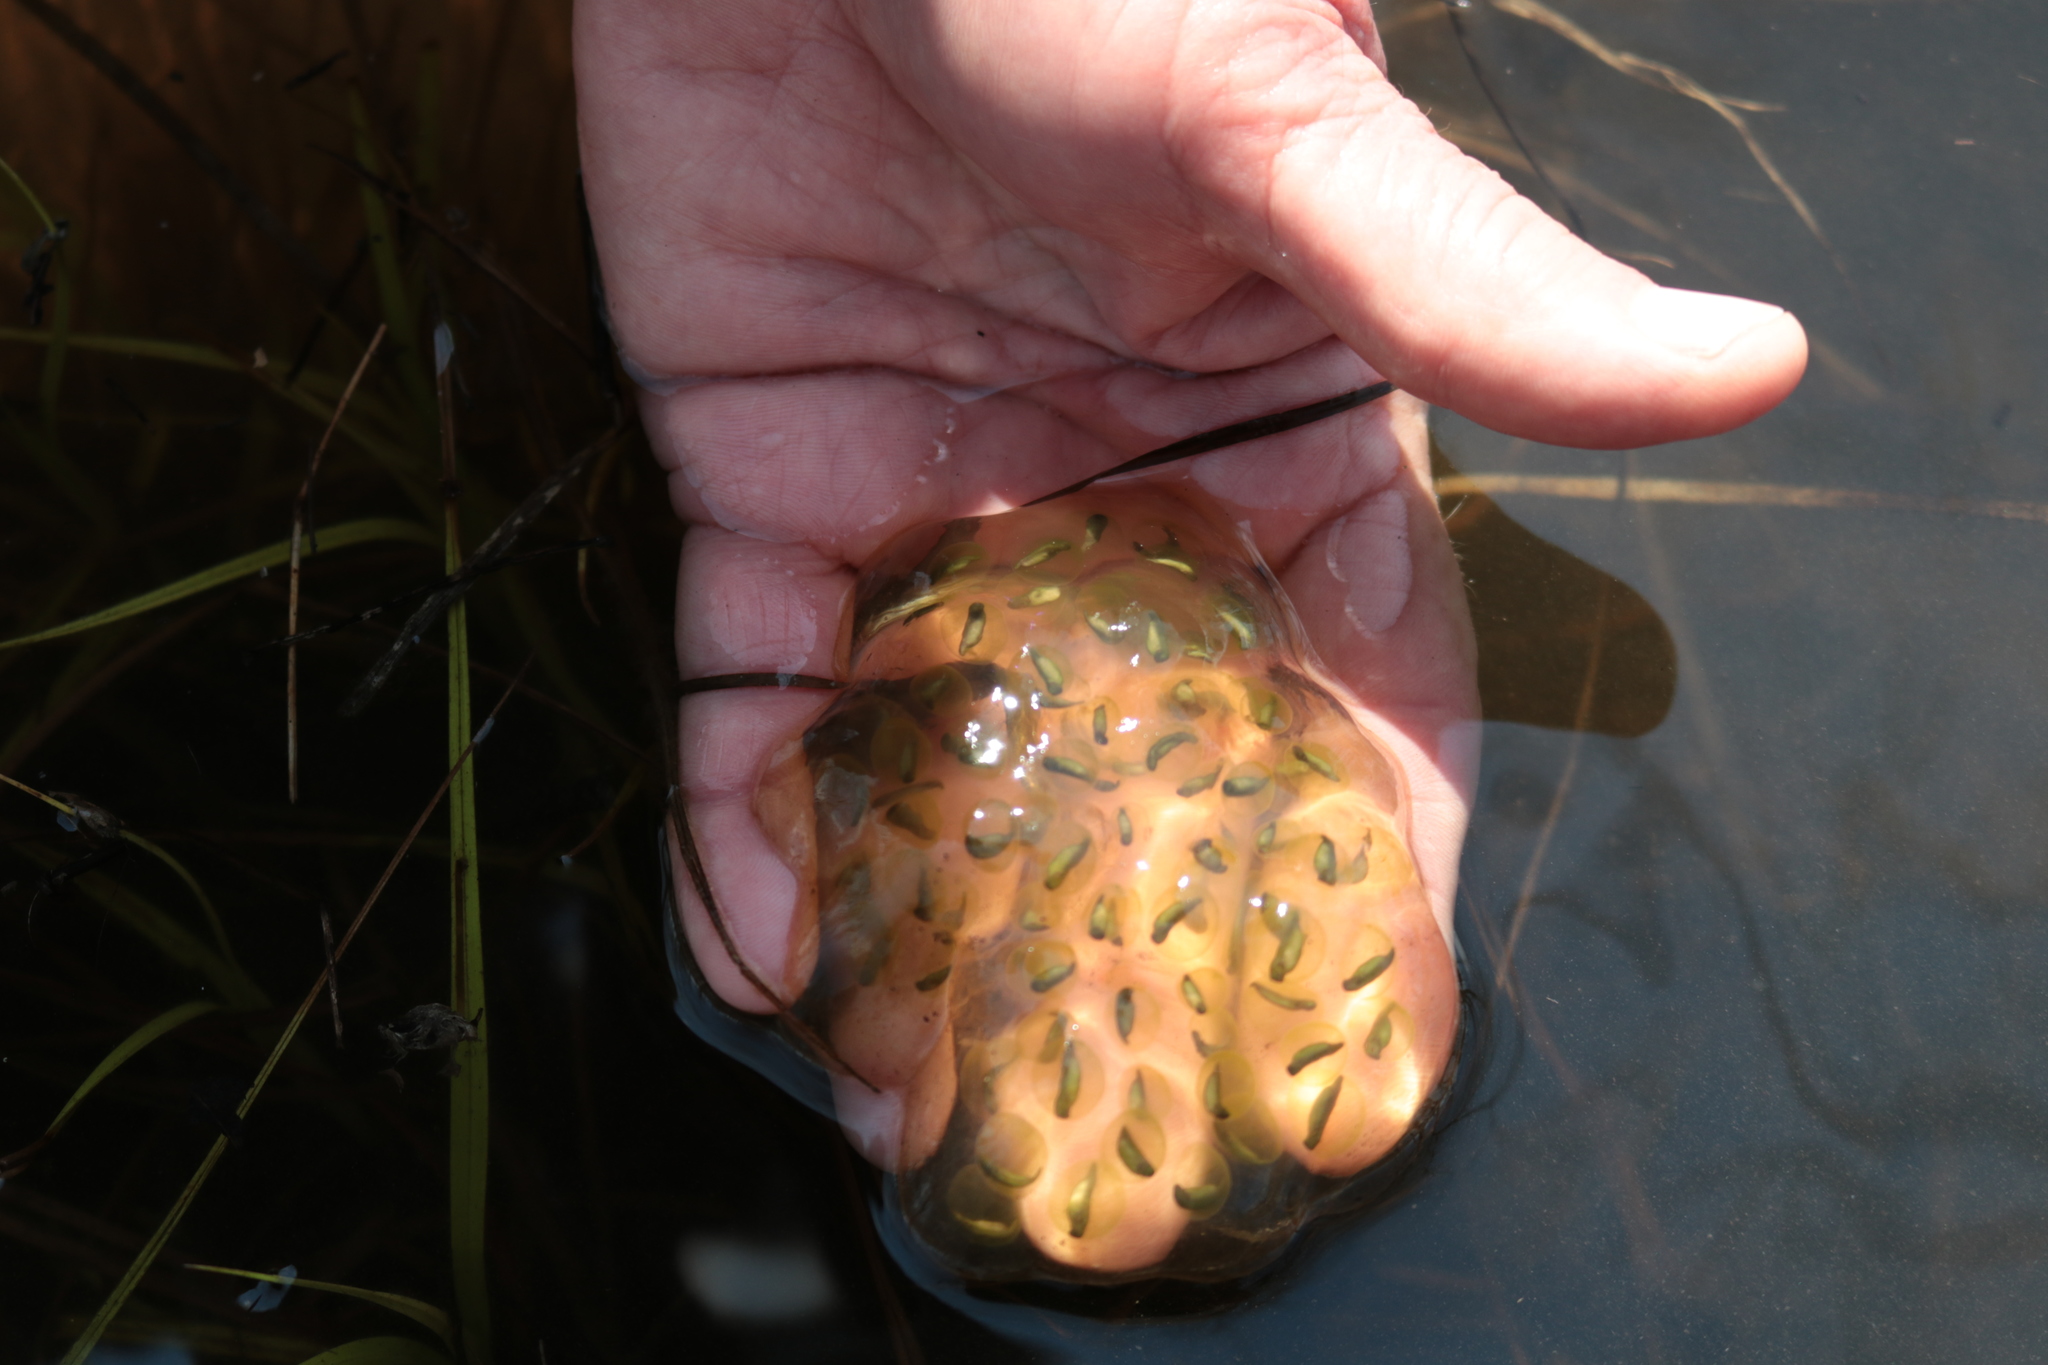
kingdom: Animalia
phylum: Chordata
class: Amphibia
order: Caudata
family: Ambystomatidae
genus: Ambystoma
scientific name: Ambystoma maculatum
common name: Spotted salamander
